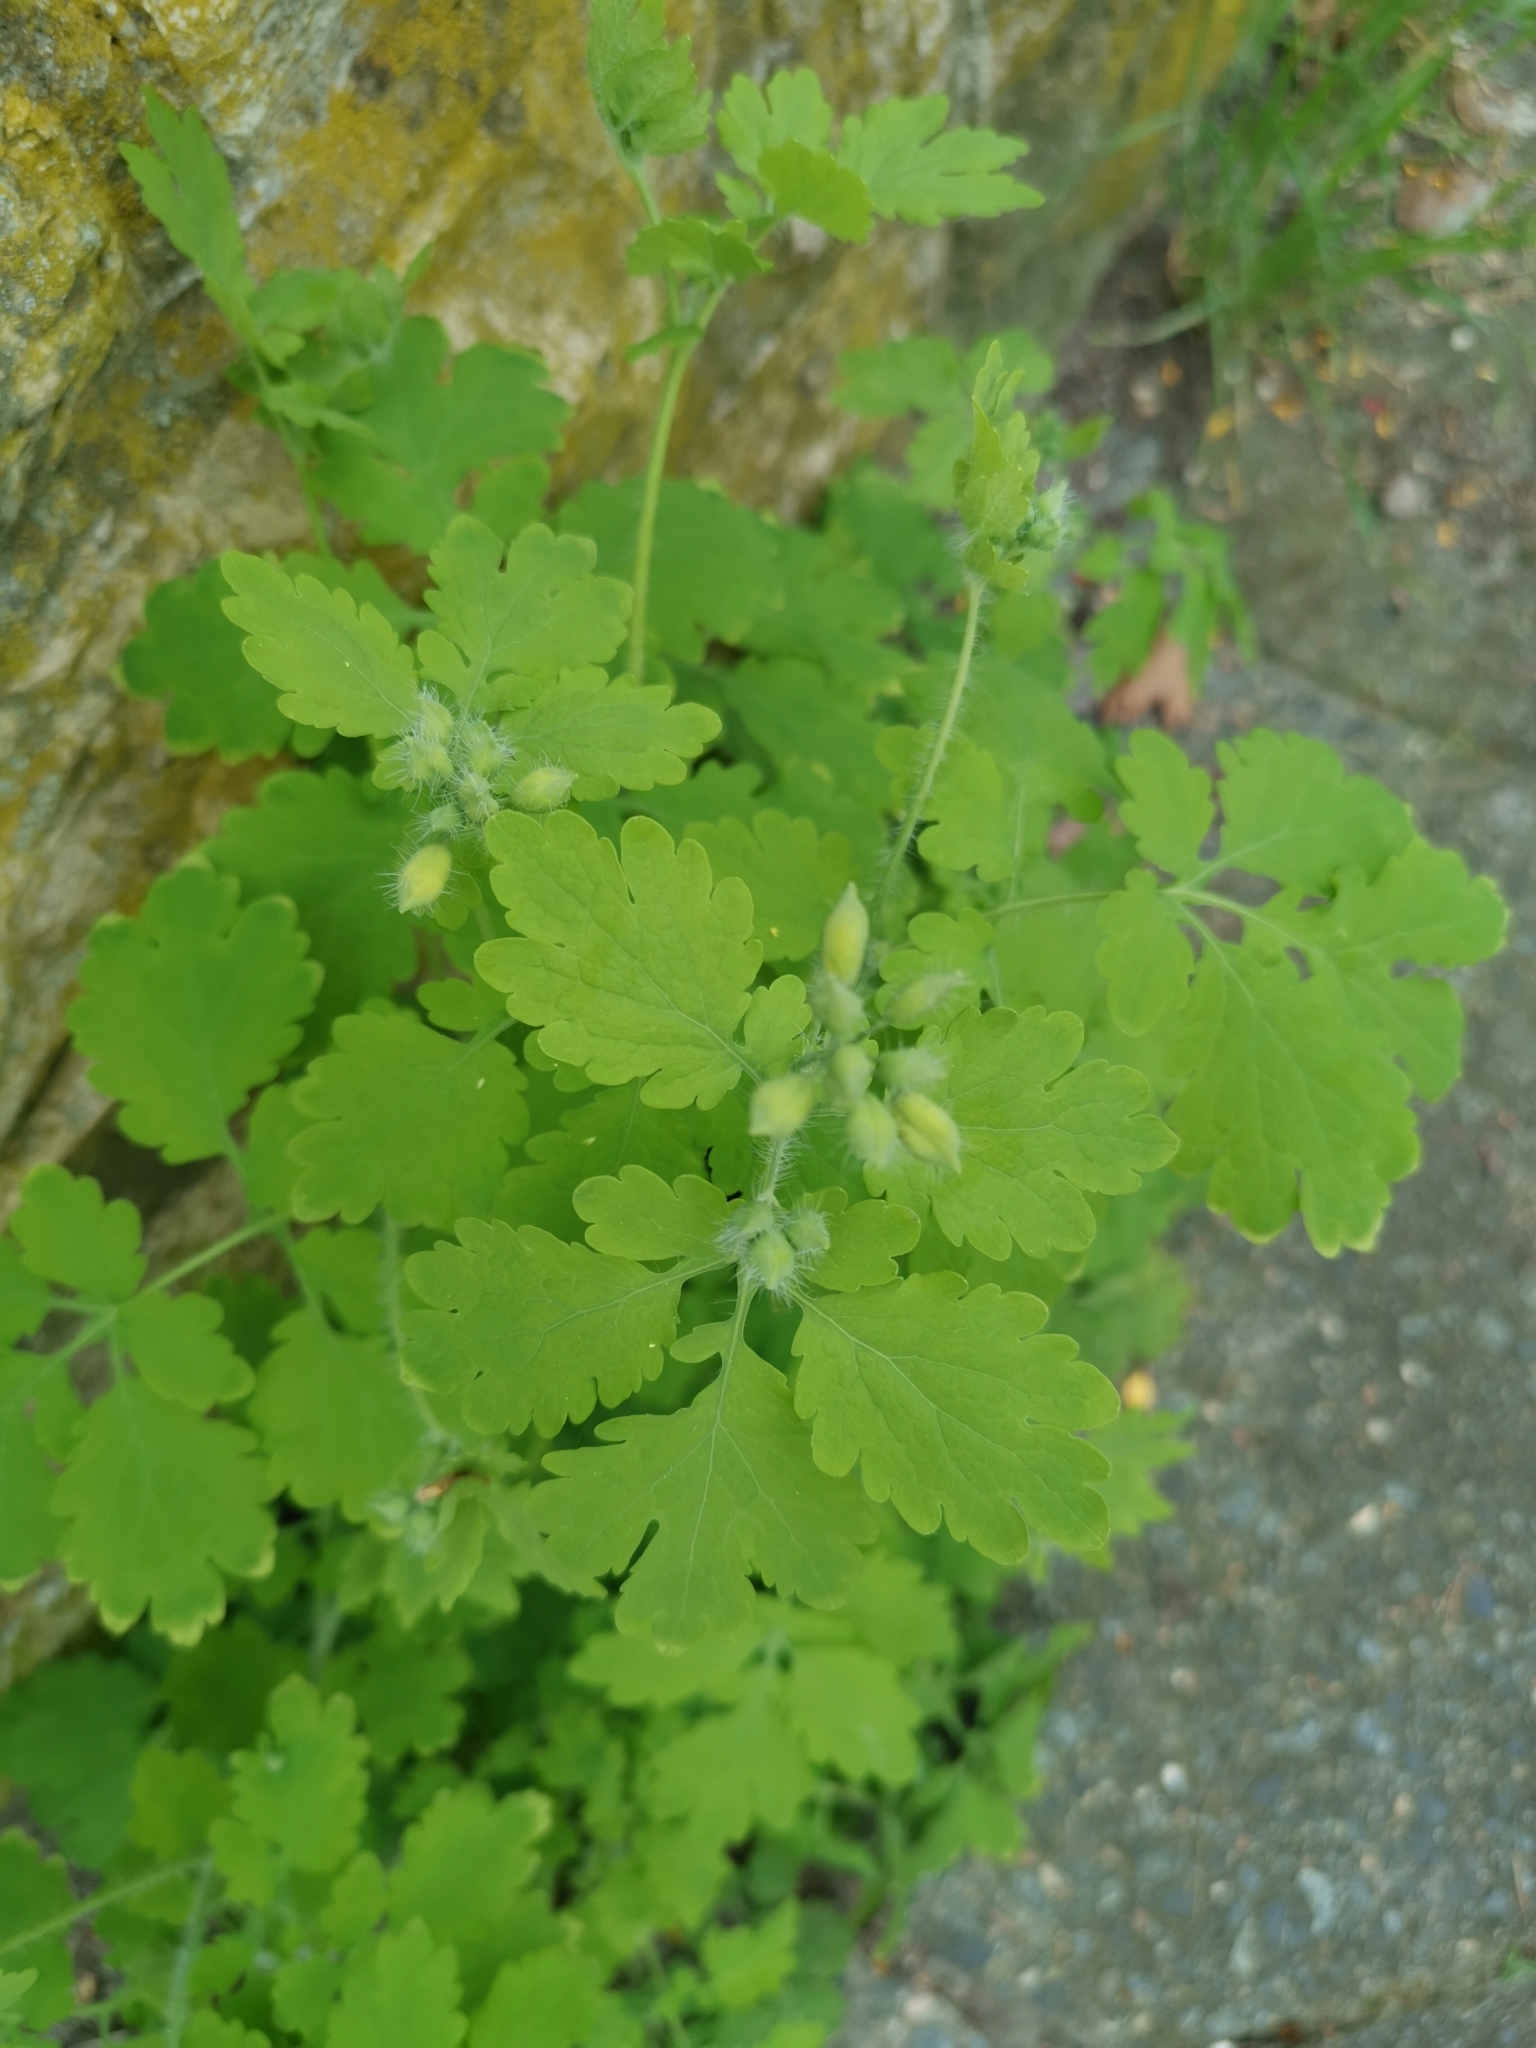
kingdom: Plantae
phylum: Tracheophyta
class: Magnoliopsida
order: Ranunculales
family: Papaveraceae
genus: Chelidonium
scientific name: Chelidonium majus
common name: Greater celandine
